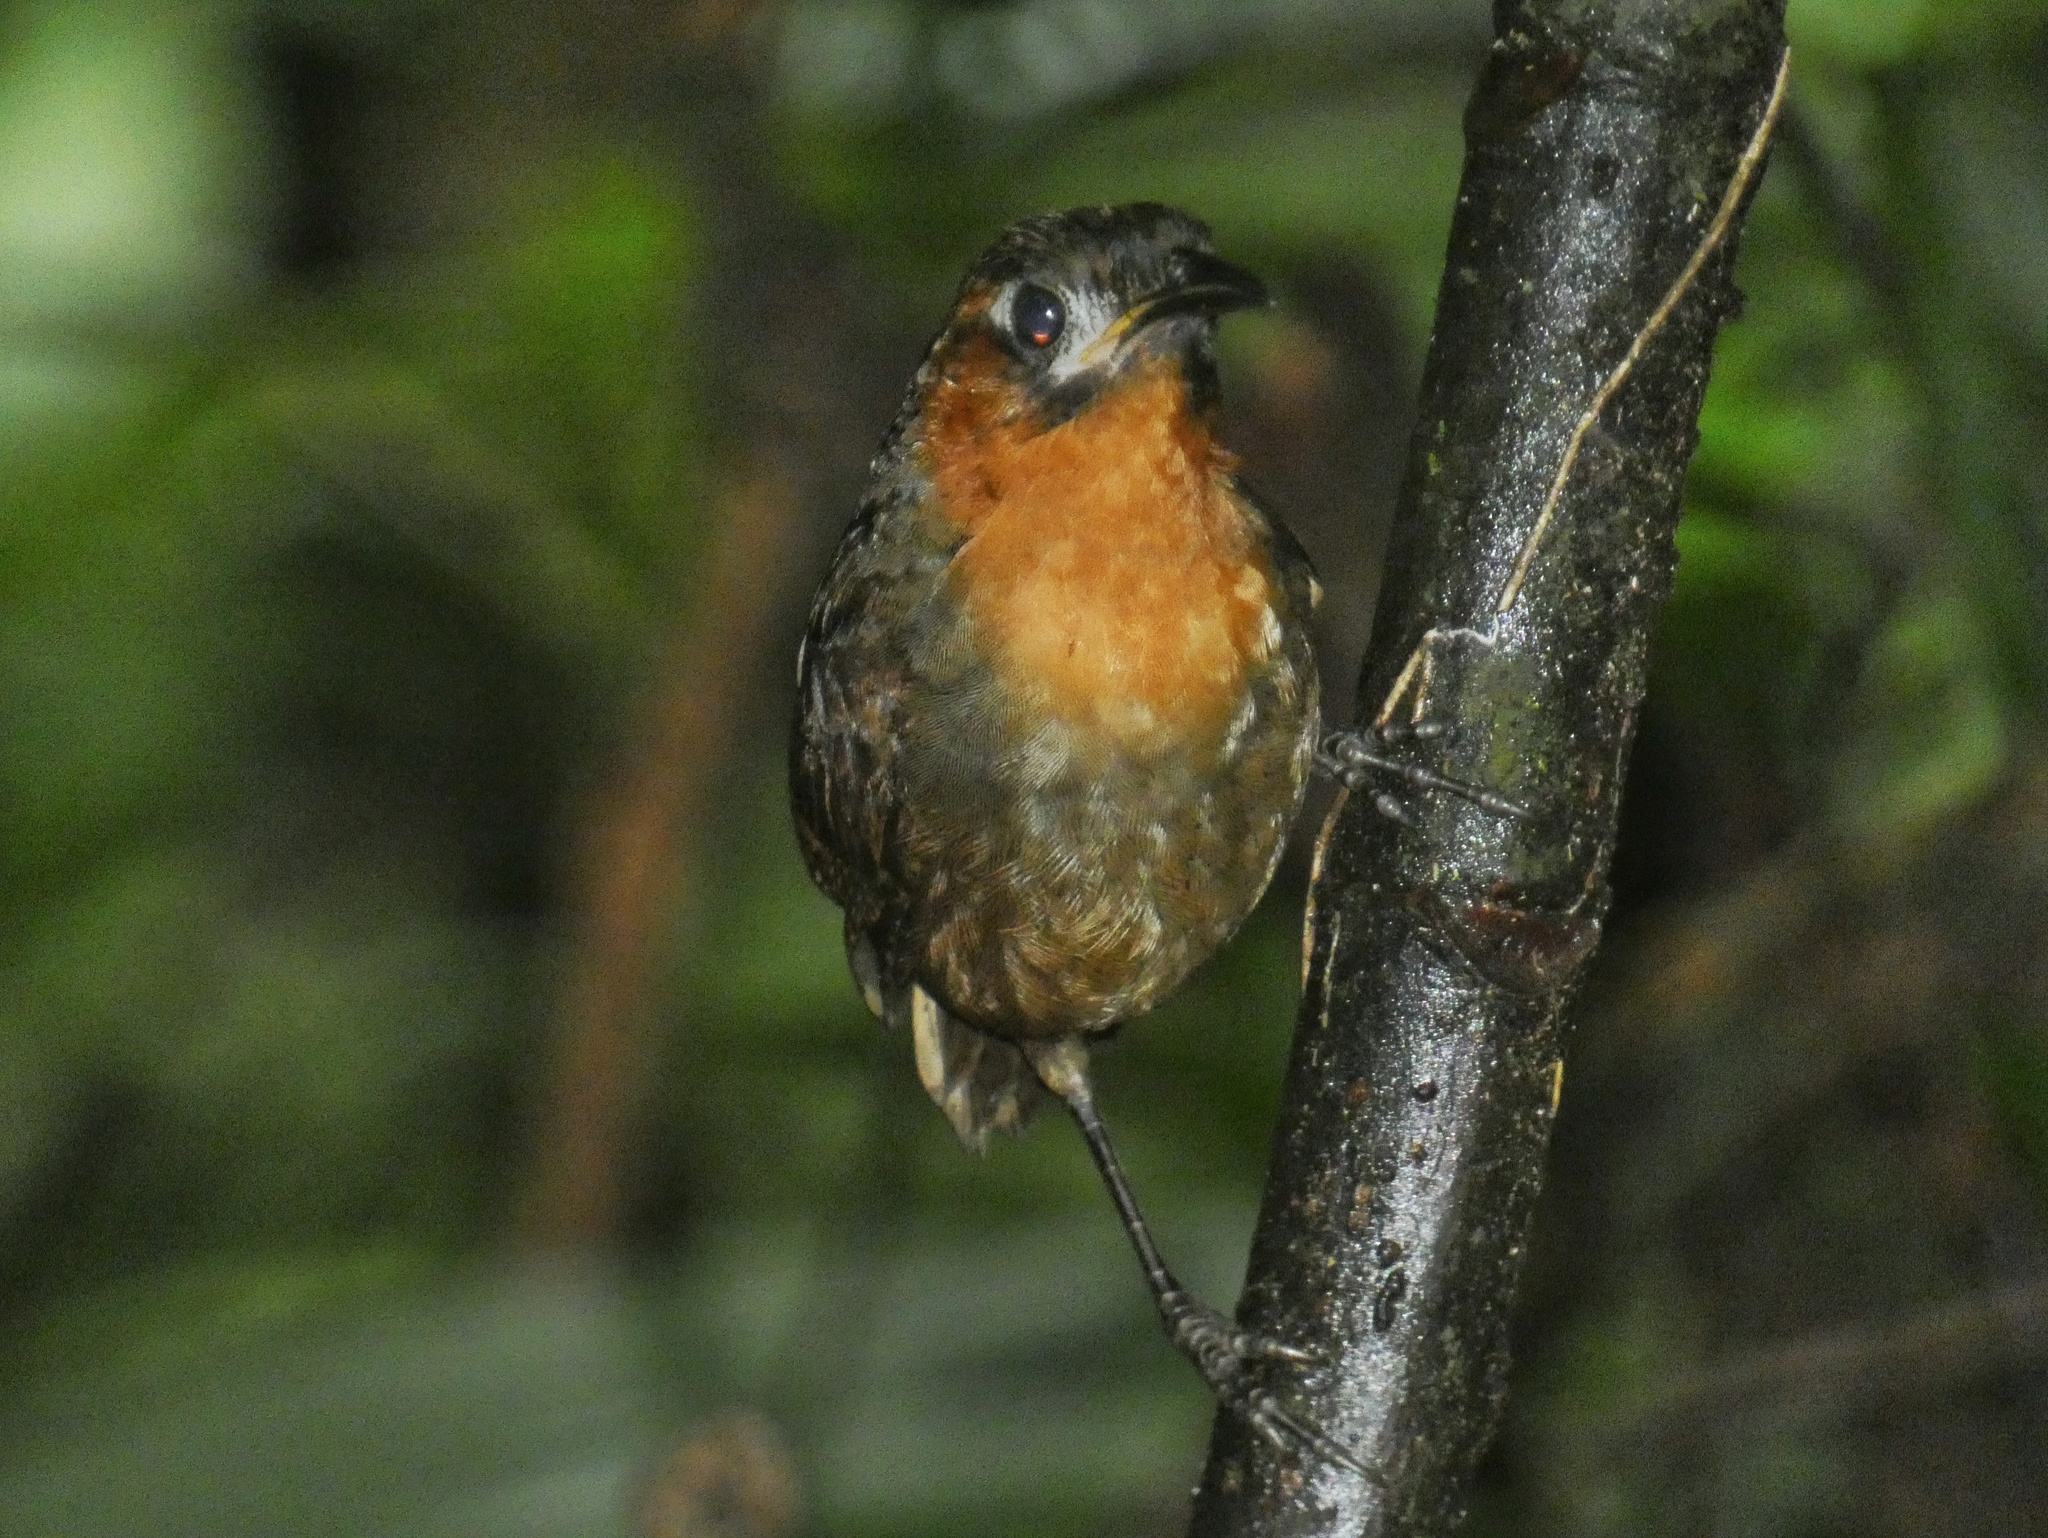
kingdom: Animalia
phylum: Chordata
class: Aves
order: Passeriformes
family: Troglodytidae
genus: Cyphorhinus
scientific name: Cyphorhinus phaeocephalus
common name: Song wren
